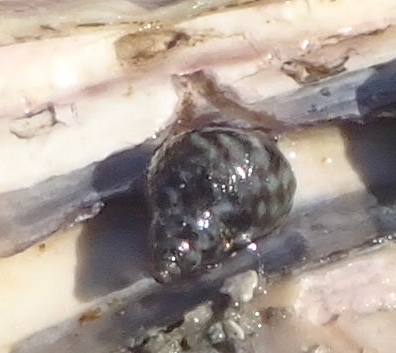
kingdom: Animalia
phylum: Mollusca
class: Gastropoda
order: Littorinimorpha
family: Littorinidae
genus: Littorina
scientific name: Littorina scutulata
